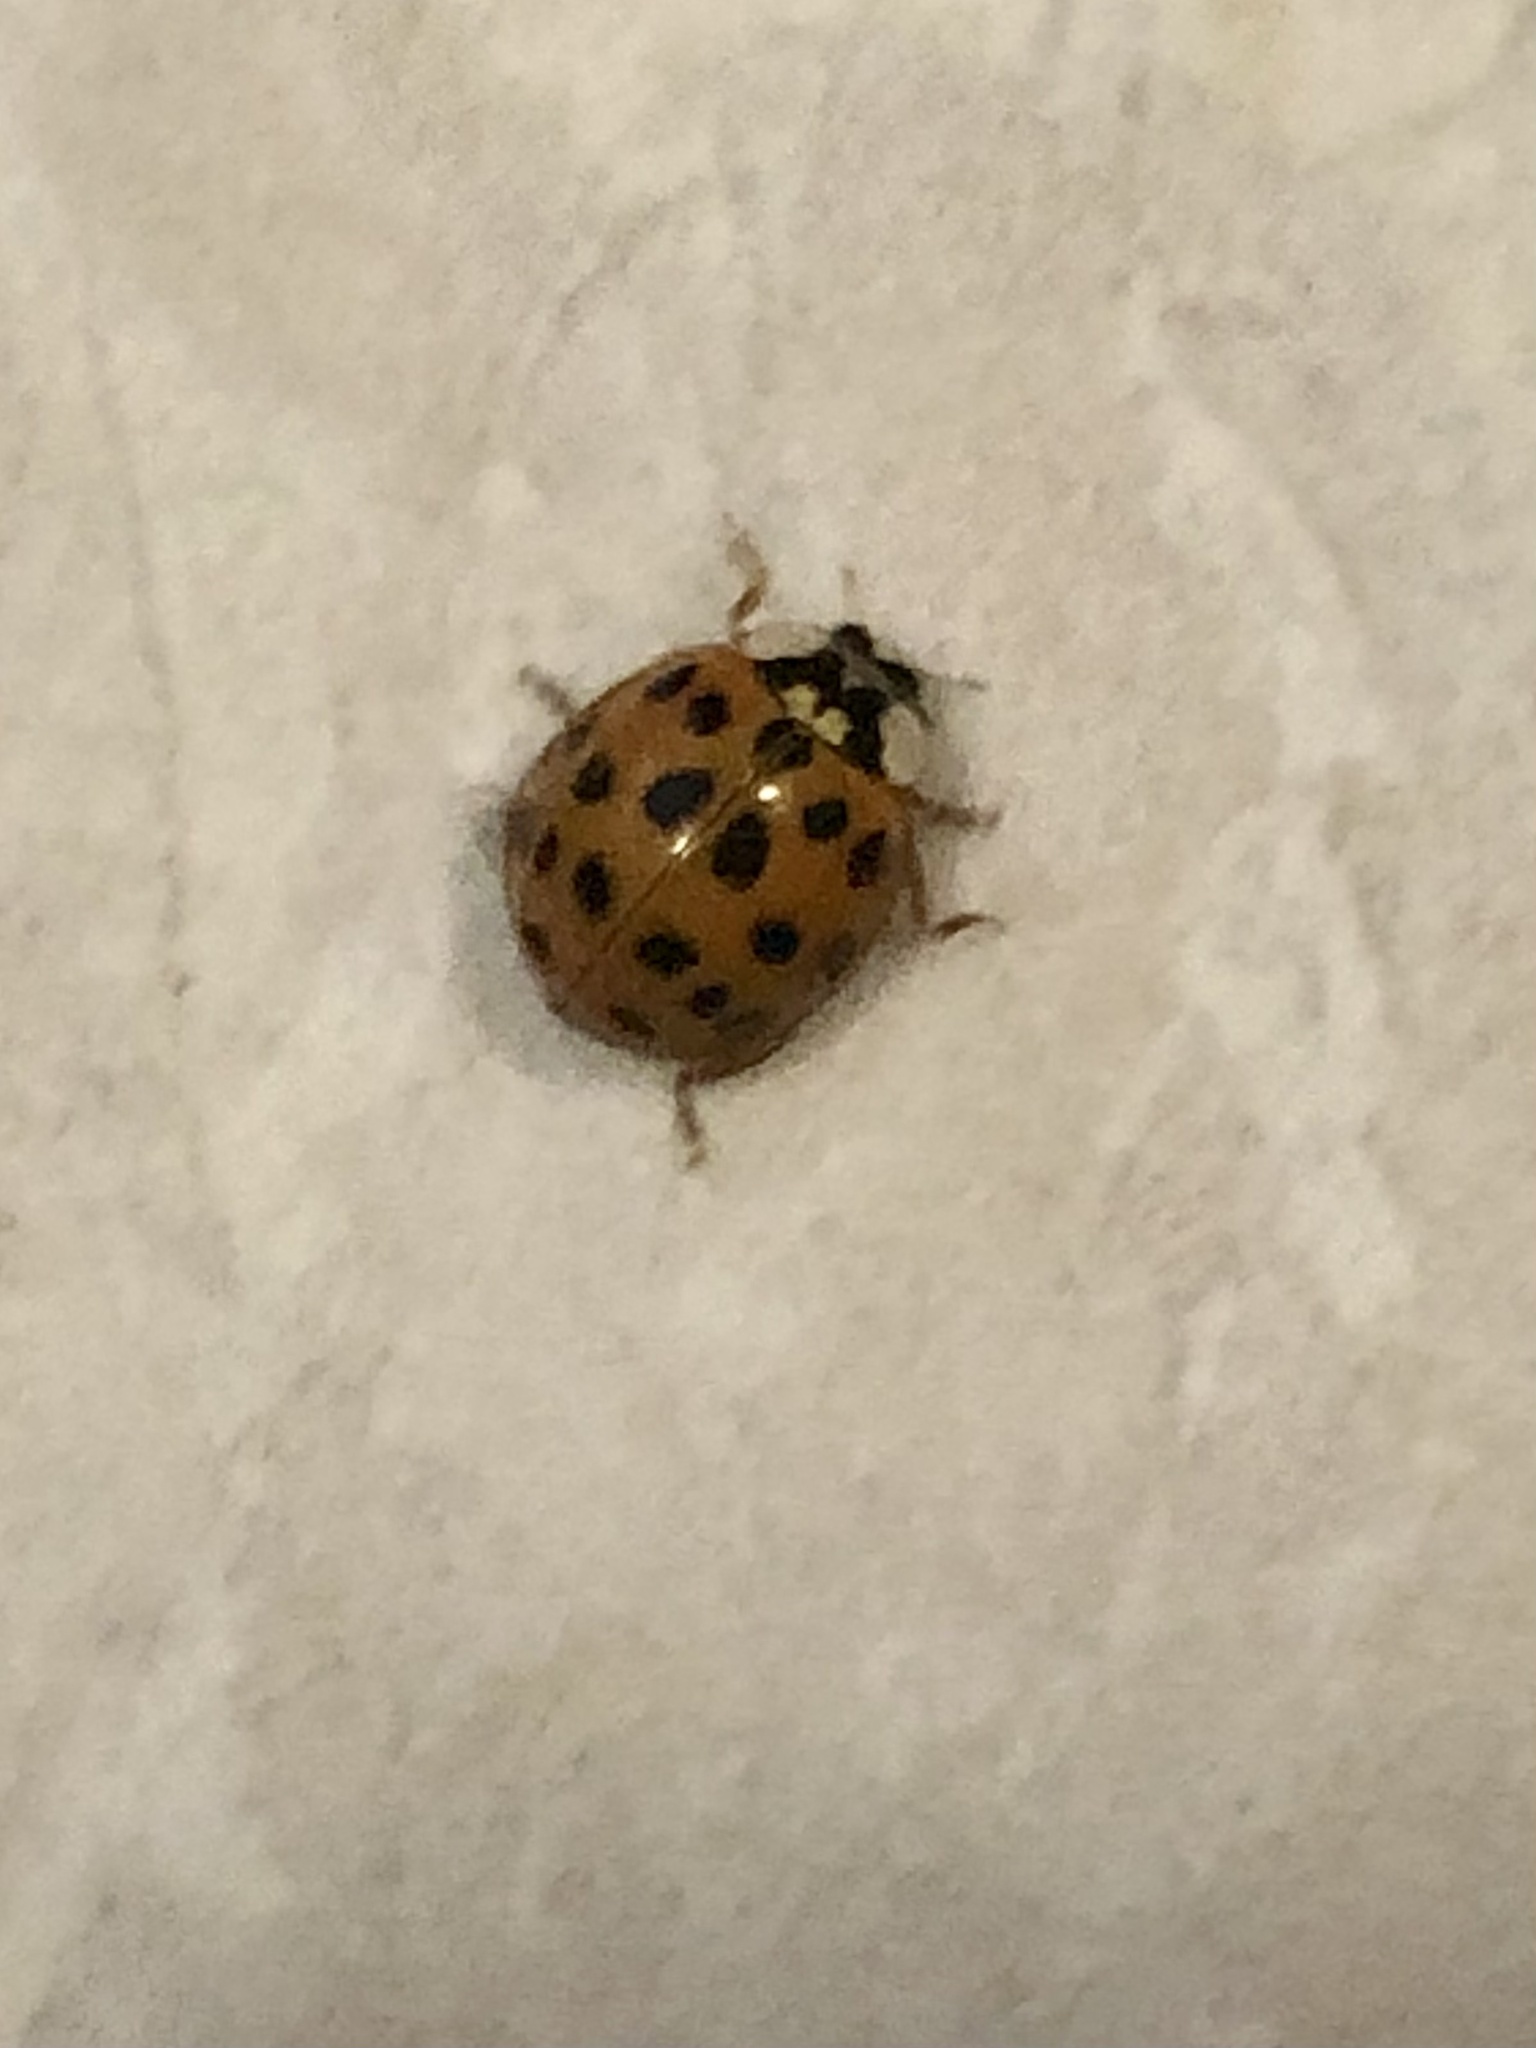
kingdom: Animalia
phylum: Arthropoda
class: Insecta
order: Coleoptera
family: Coccinellidae
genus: Harmonia
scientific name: Harmonia axyridis
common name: Harlequin ladybird
